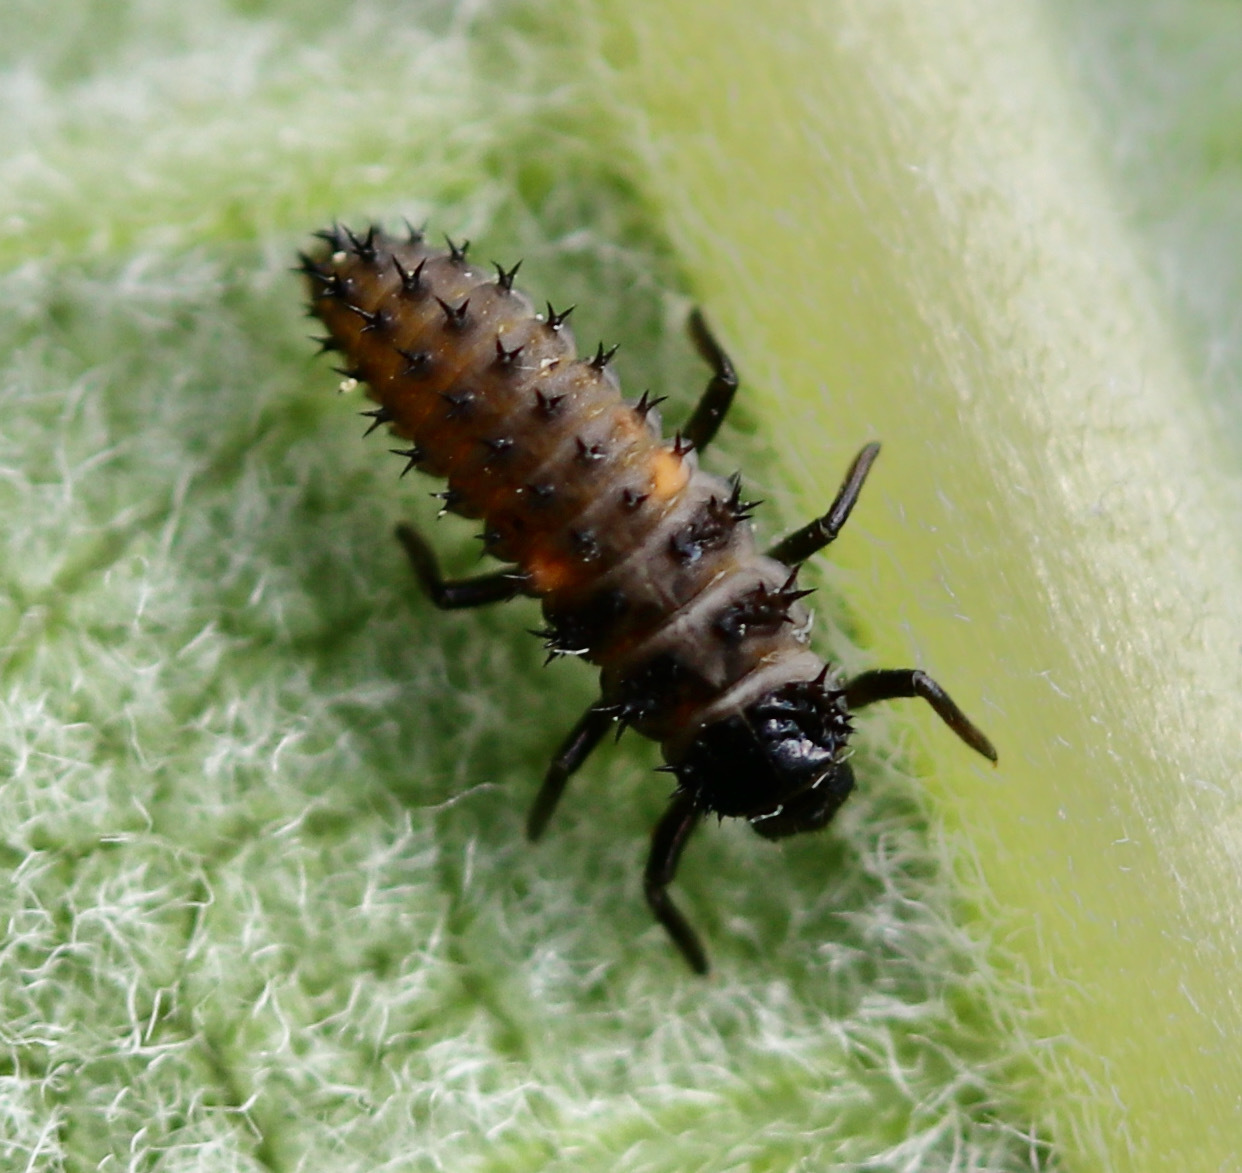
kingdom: Animalia
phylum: Arthropoda
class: Insecta
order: Coleoptera
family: Coccinellidae
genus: Harmonia
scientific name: Harmonia axyridis
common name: Harlequin ladybird
